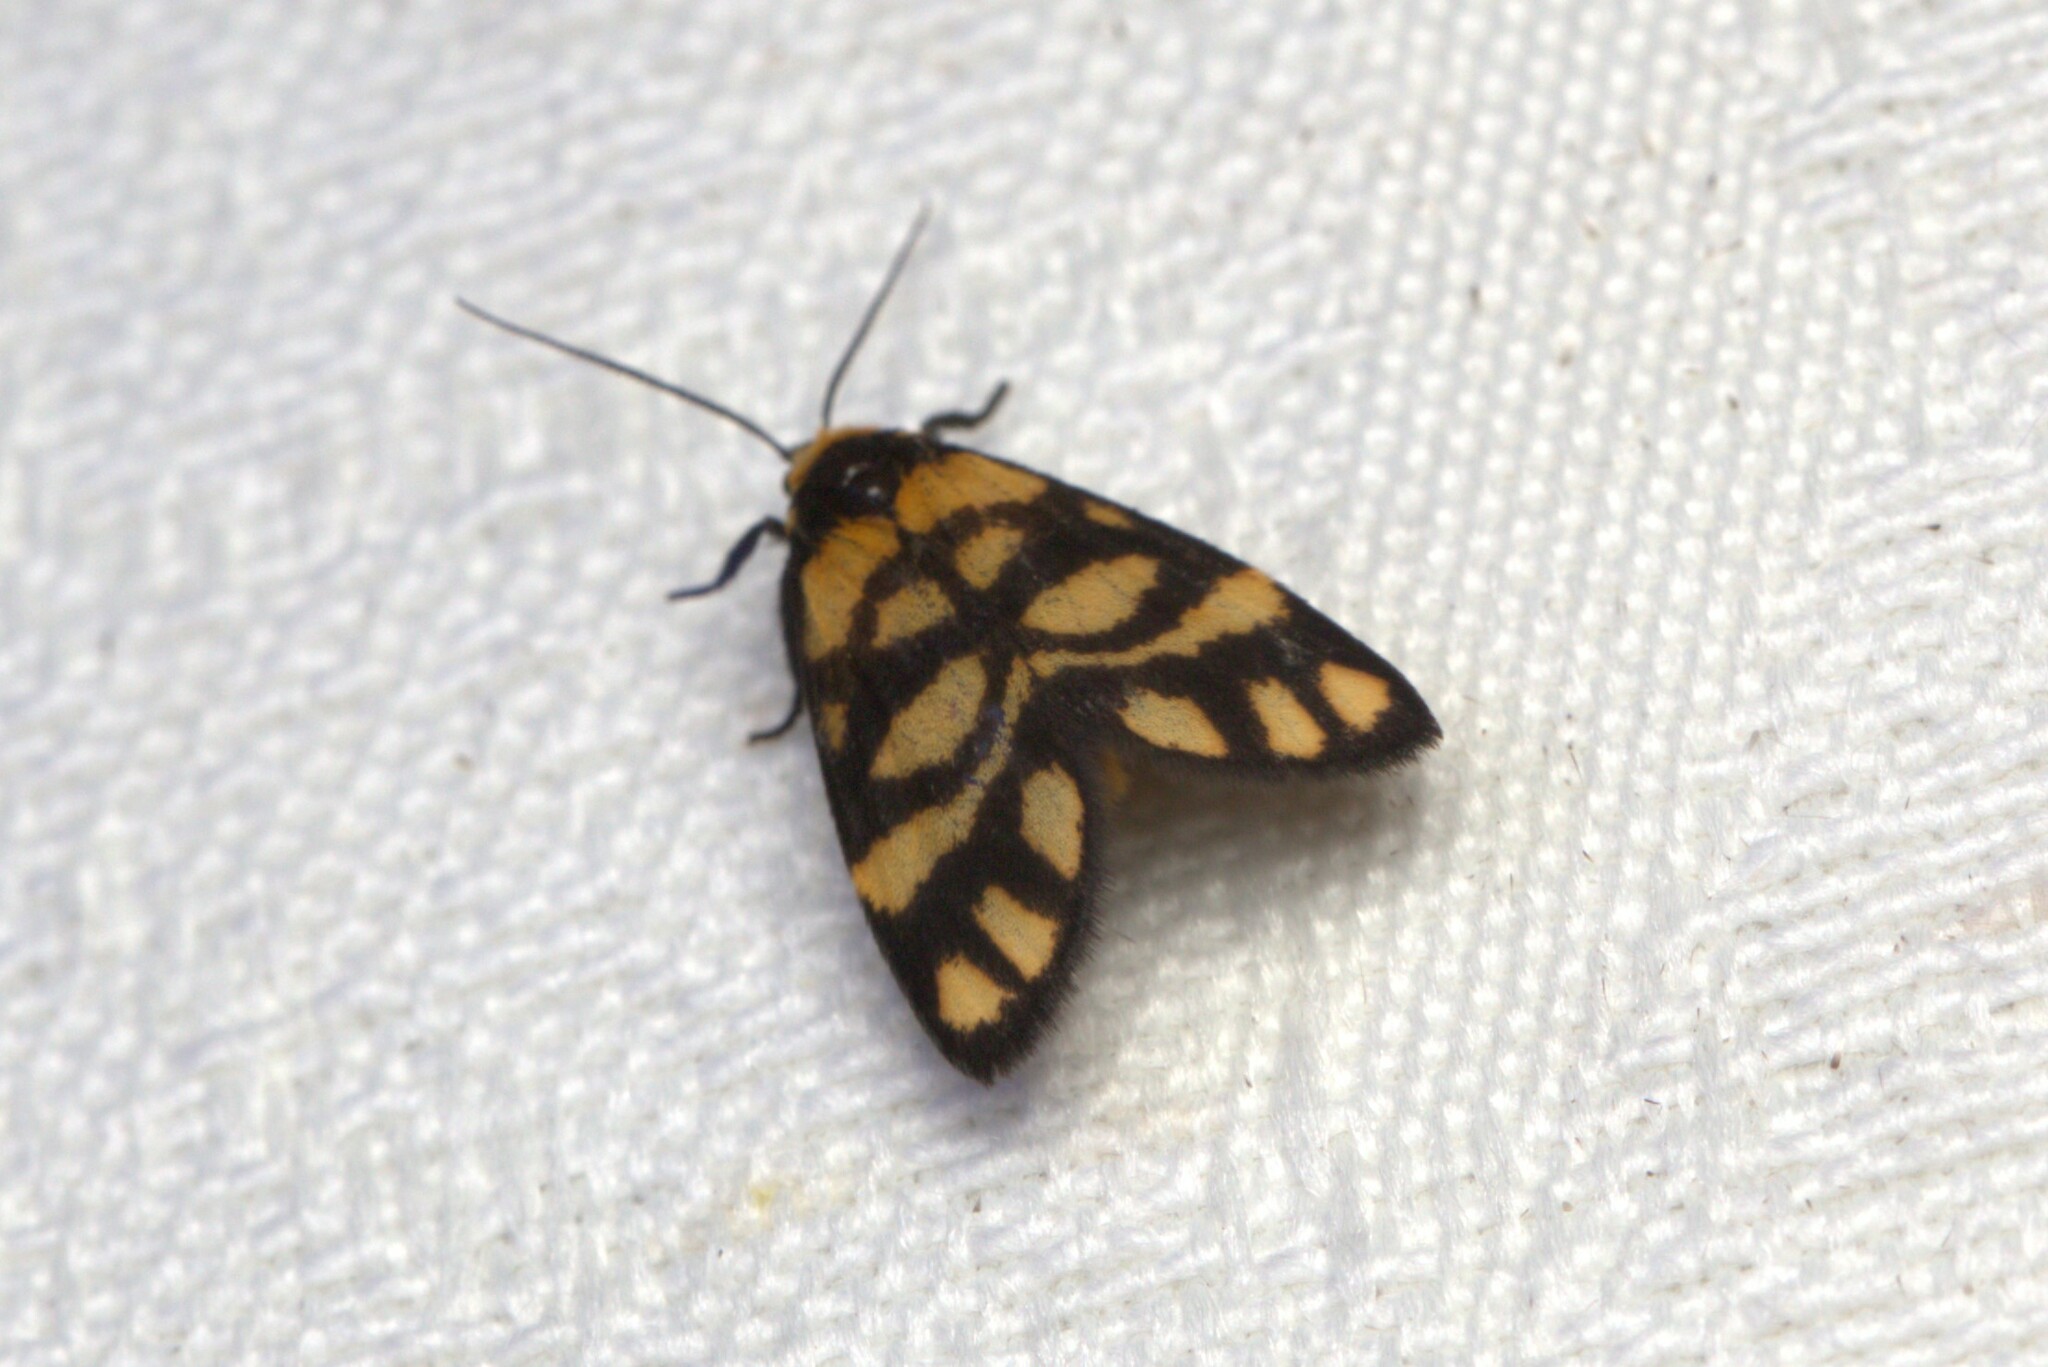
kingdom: Animalia
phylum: Arthropoda
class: Insecta
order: Lepidoptera
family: Erebidae
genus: Asura
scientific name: Asura lydia
